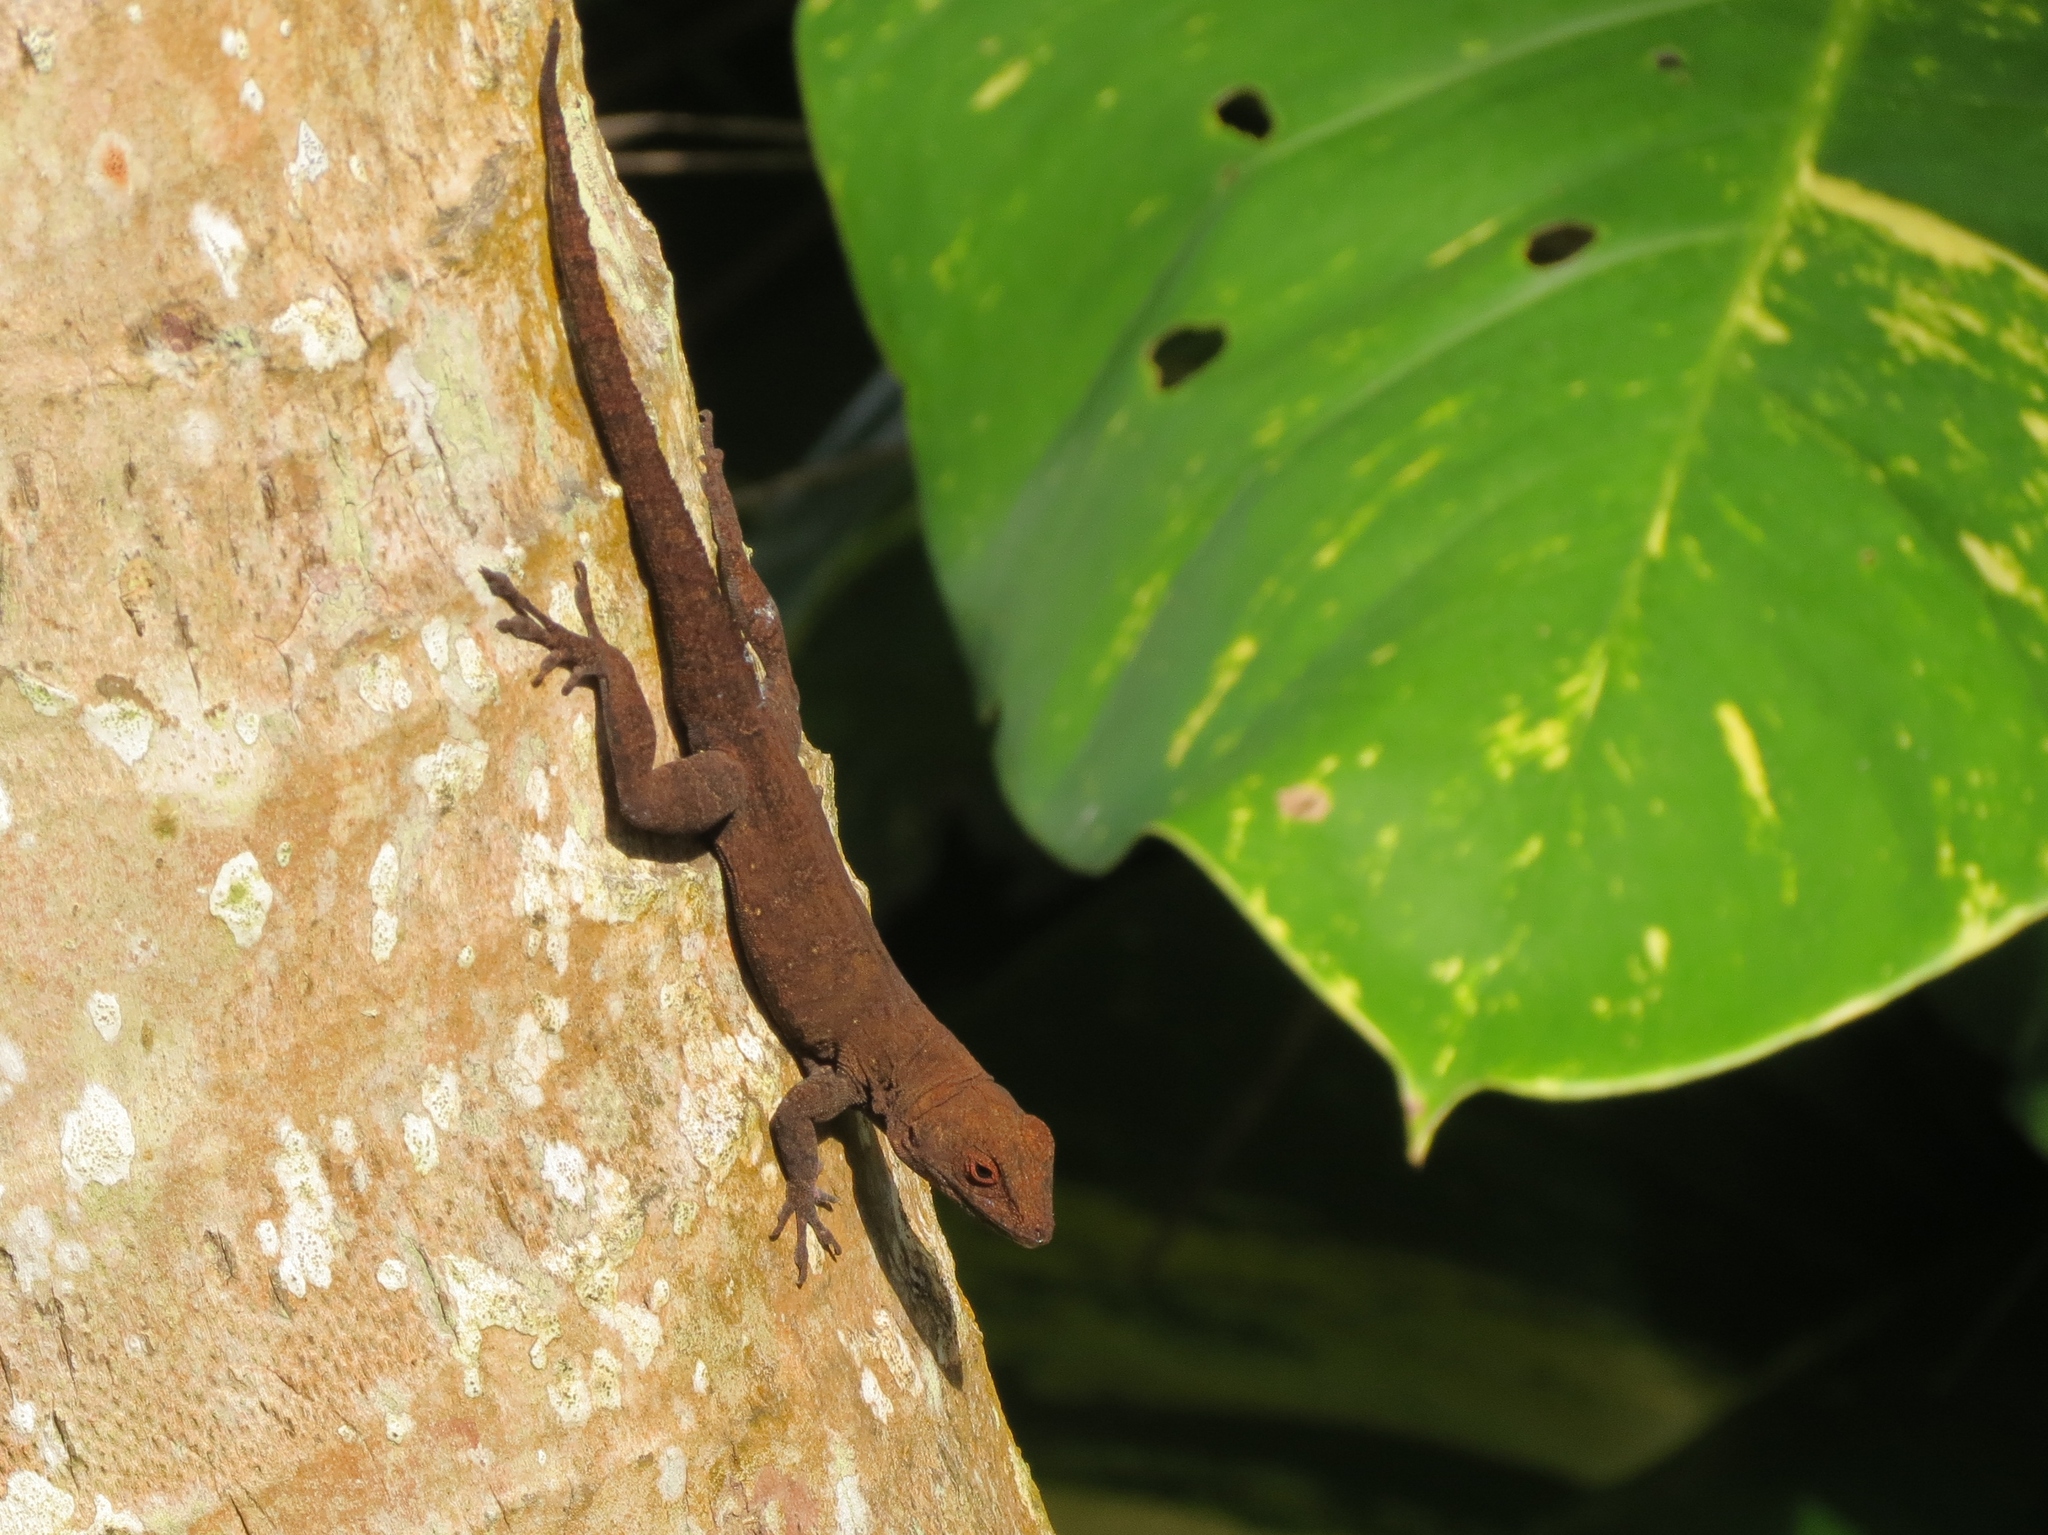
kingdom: Animalia
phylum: Chordata
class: Squamata
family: Dactyloidae
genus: Anolis
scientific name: Anolis cristatellus
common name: Crested anole
